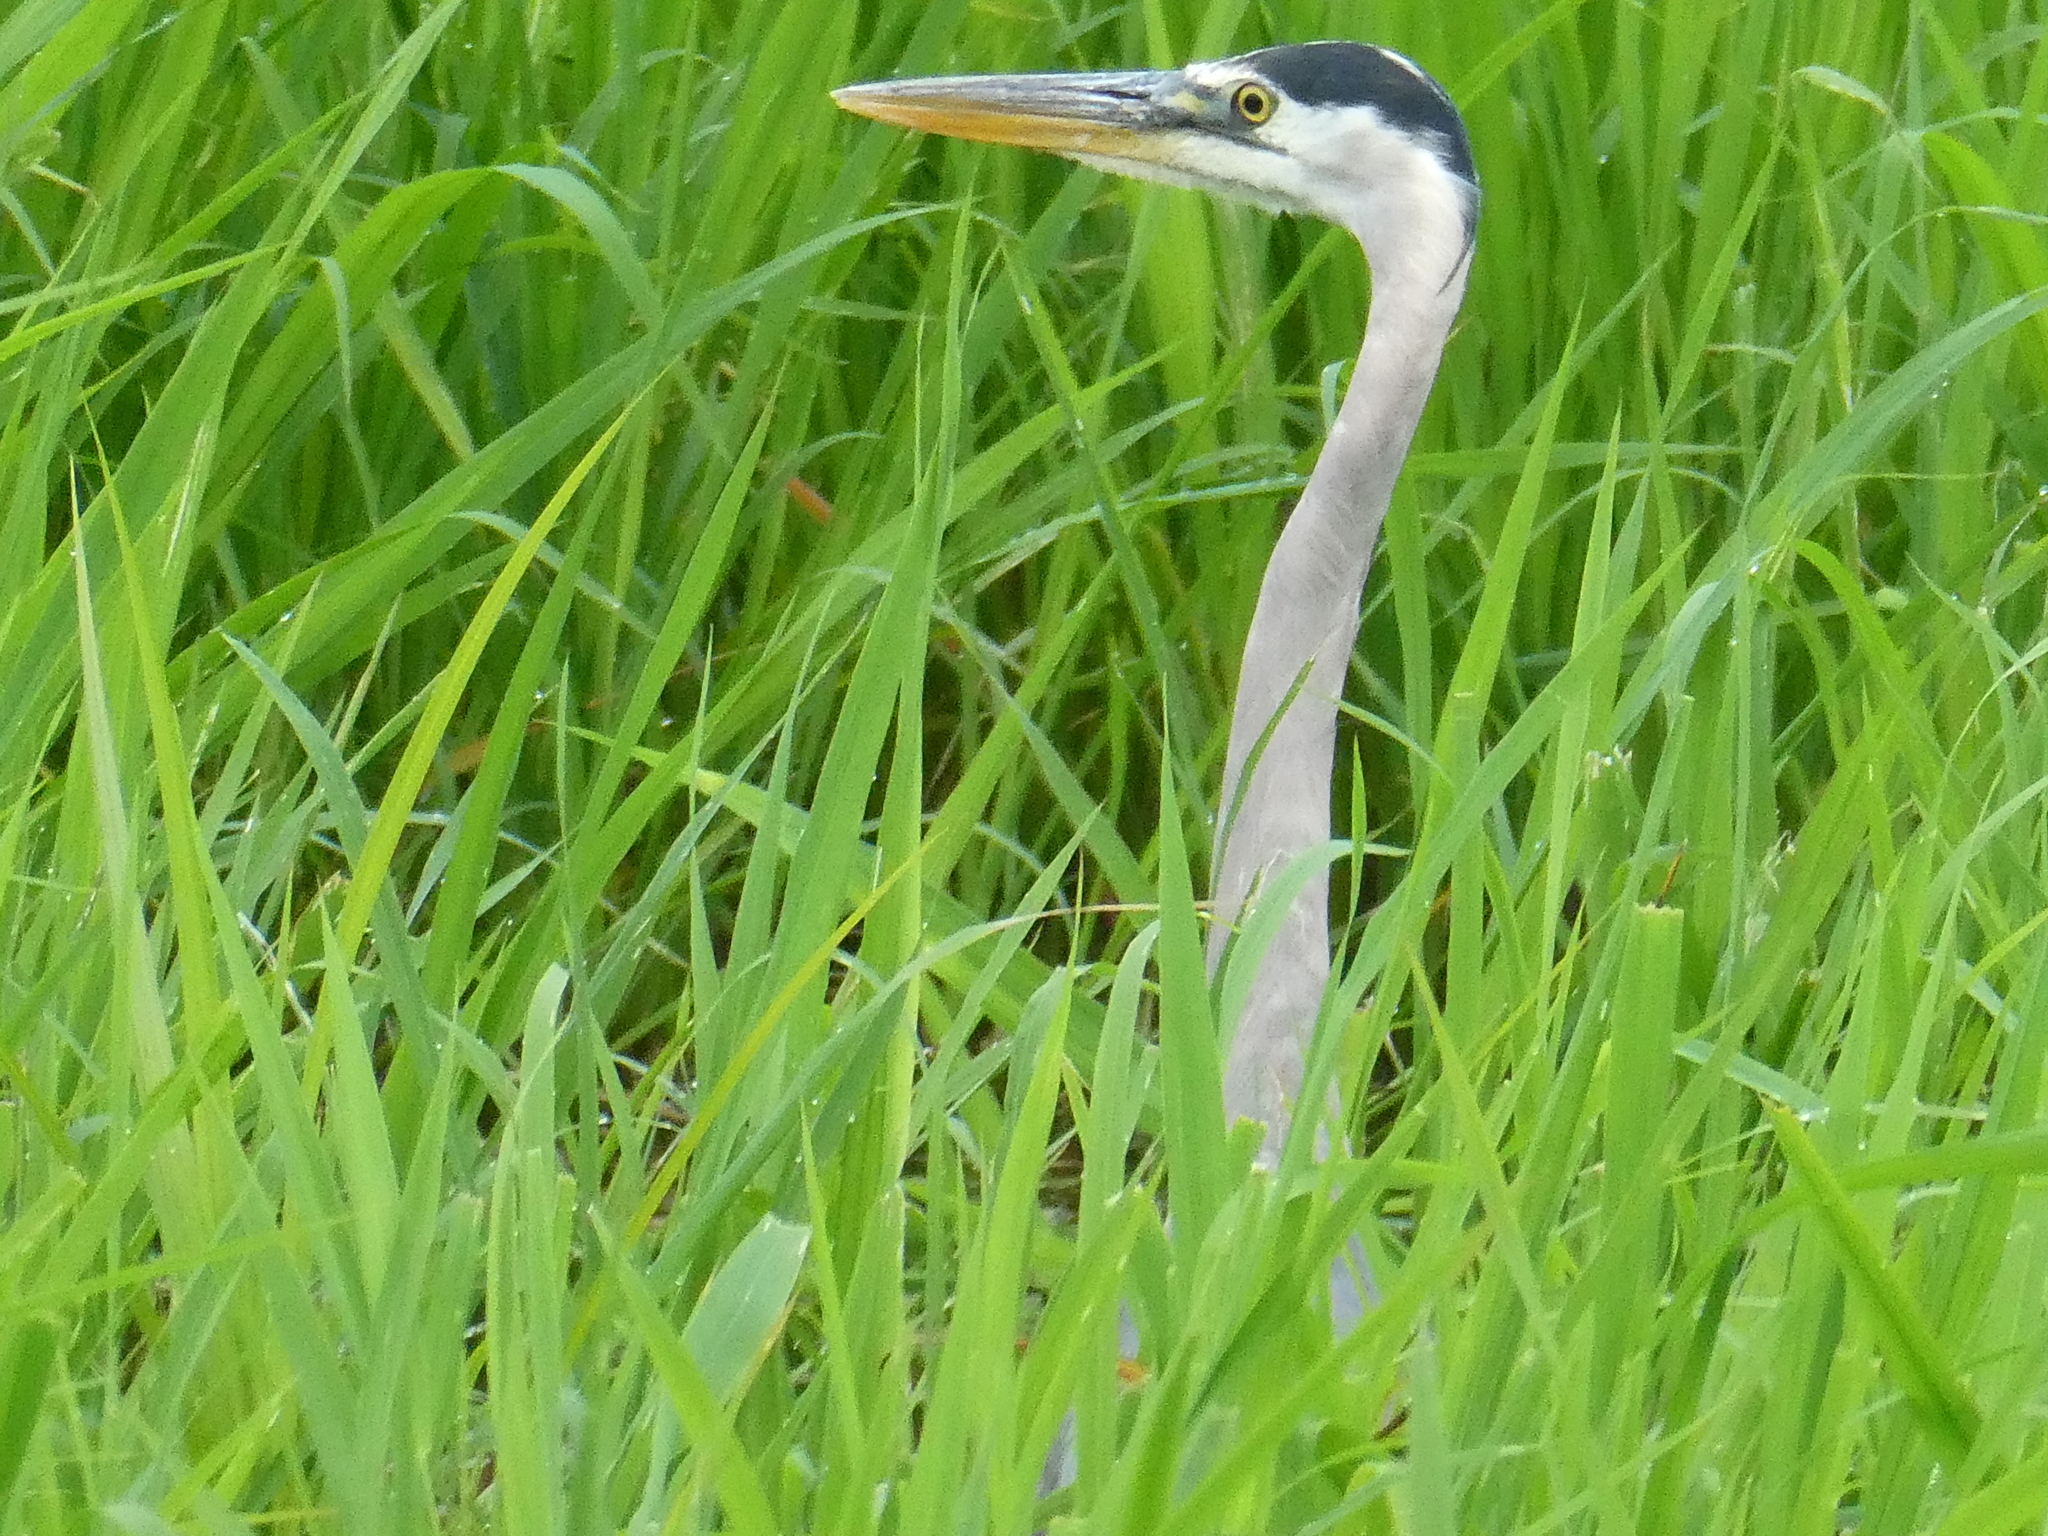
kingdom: Animalia
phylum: Chordata
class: Aves
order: Pelecaniformes
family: Ardeidae
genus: Ardea
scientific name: Ardea herodias
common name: Great blue heron
